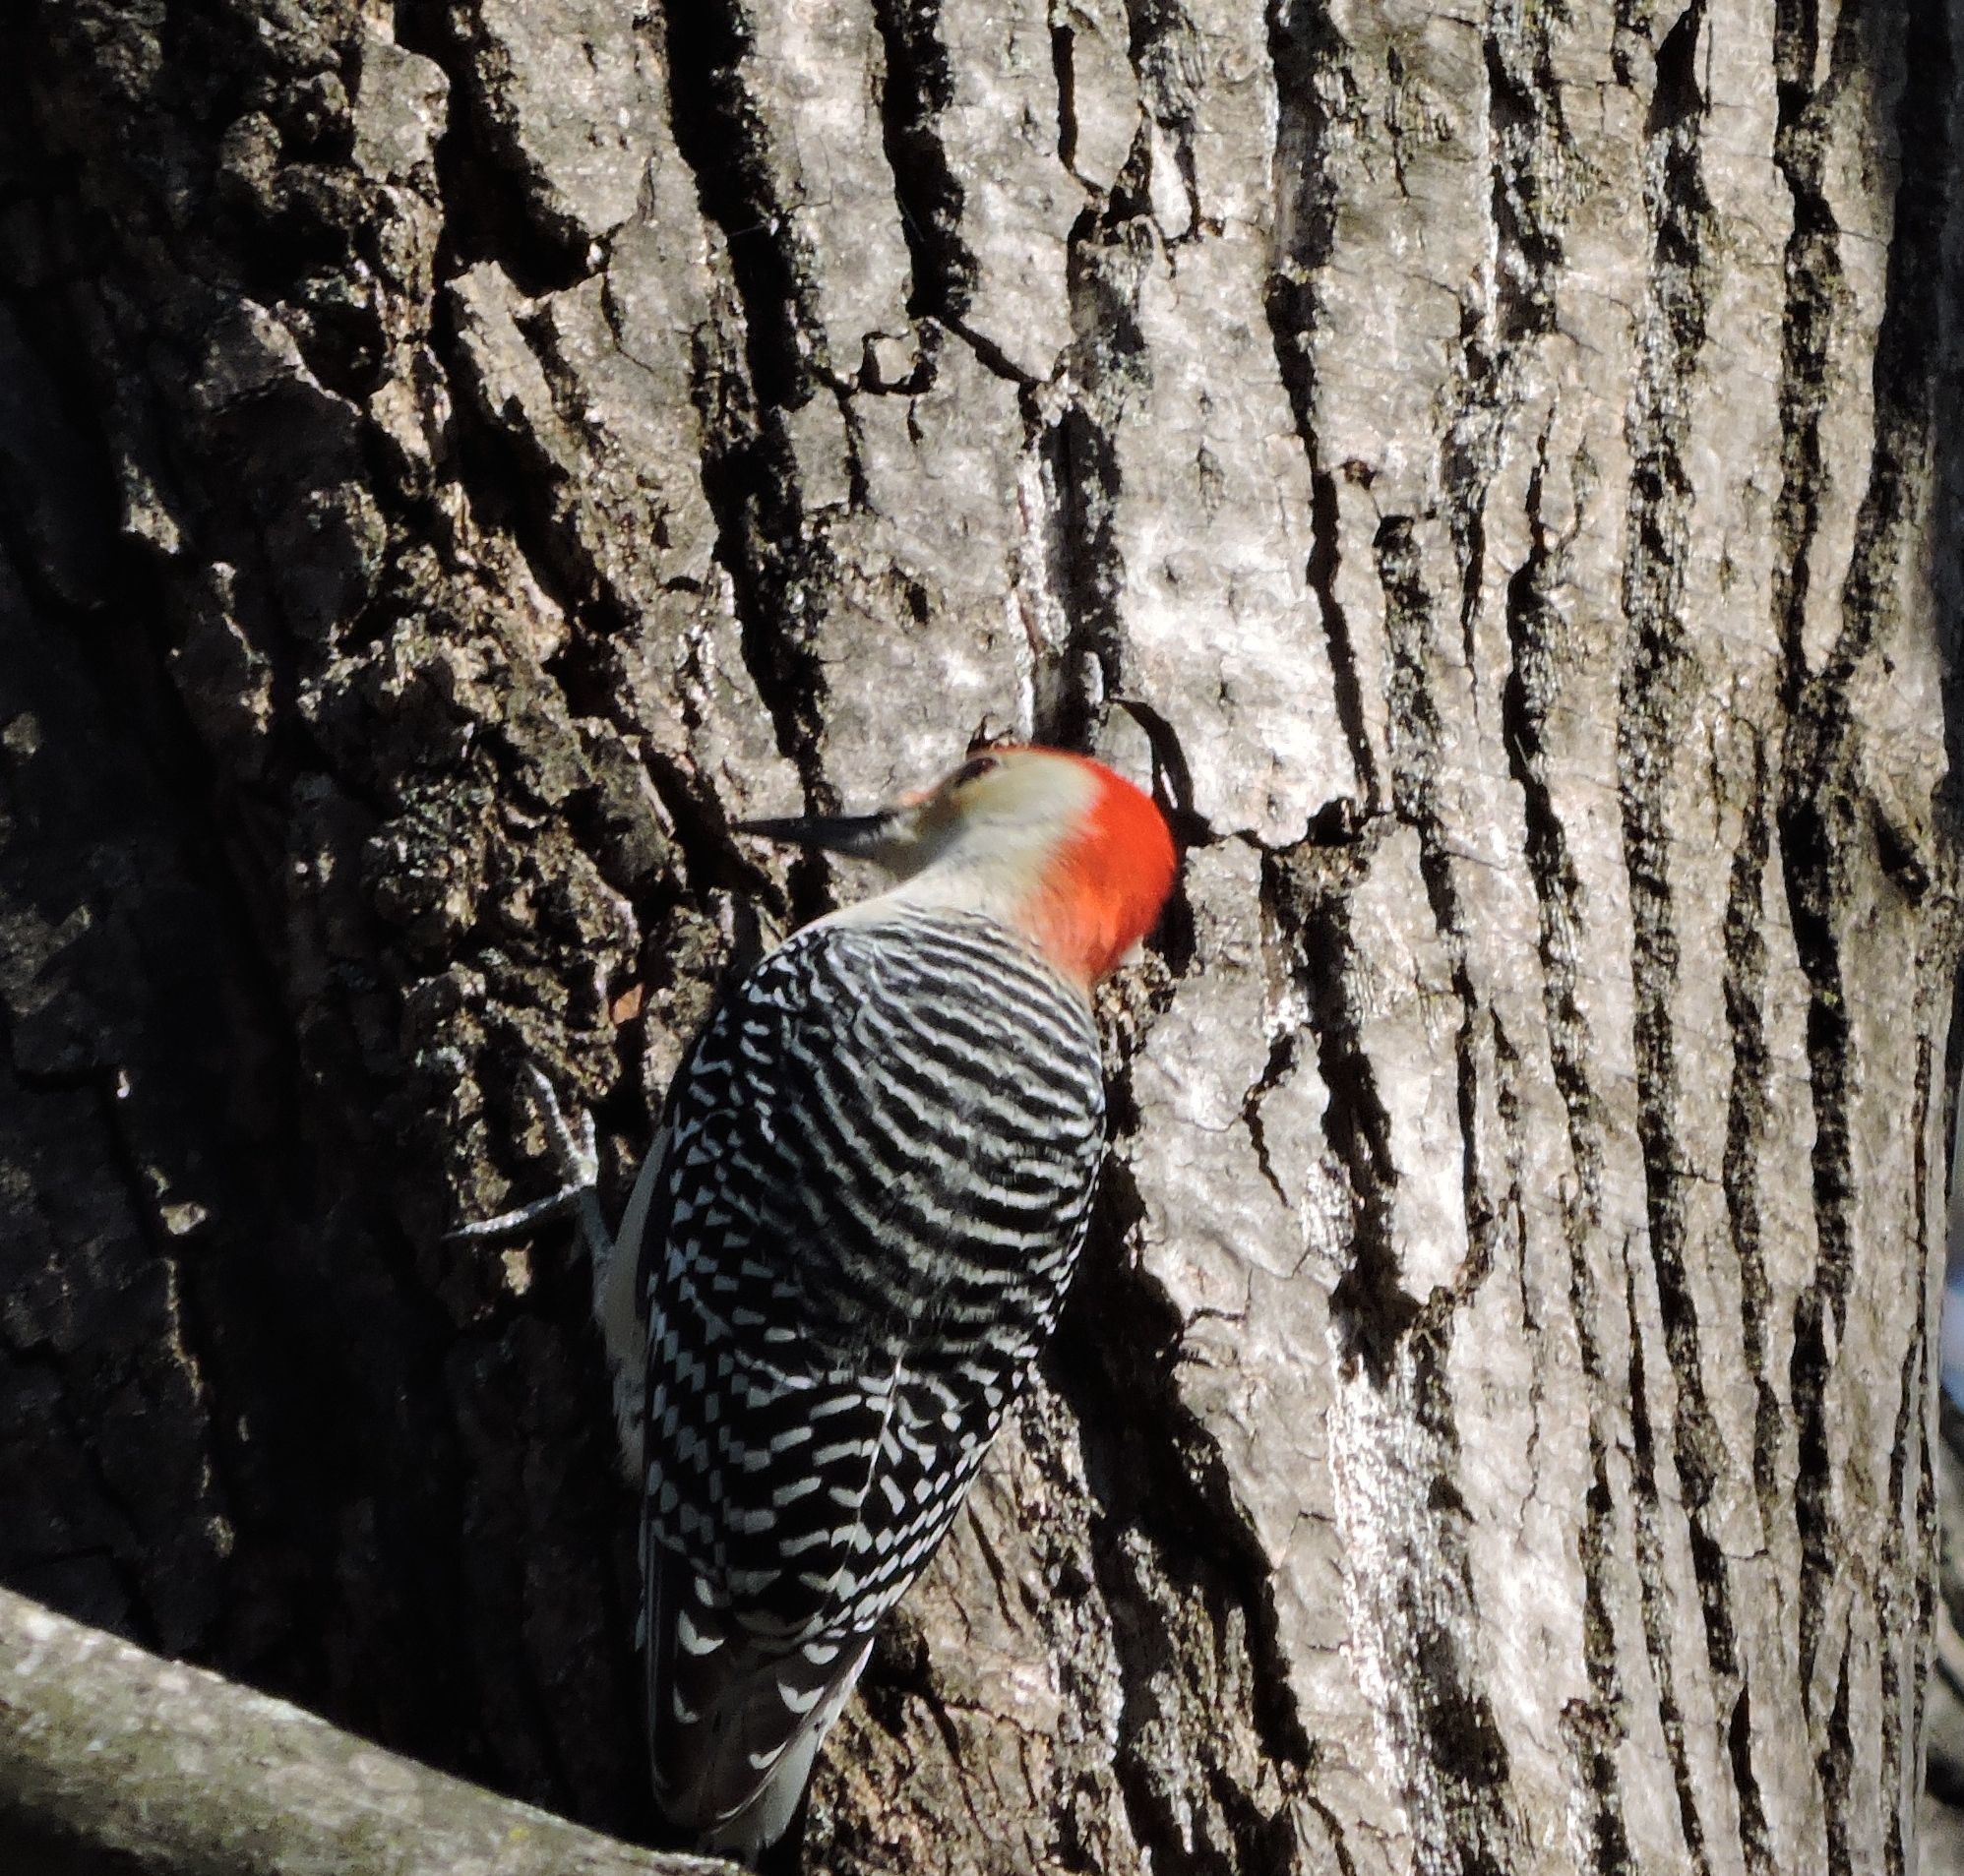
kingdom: Animalia
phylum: Chordata
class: Aves
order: Piciformes
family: Picidae
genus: Melanerpes
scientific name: Melanerpes carolinus
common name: Red-bellied woodpecker
